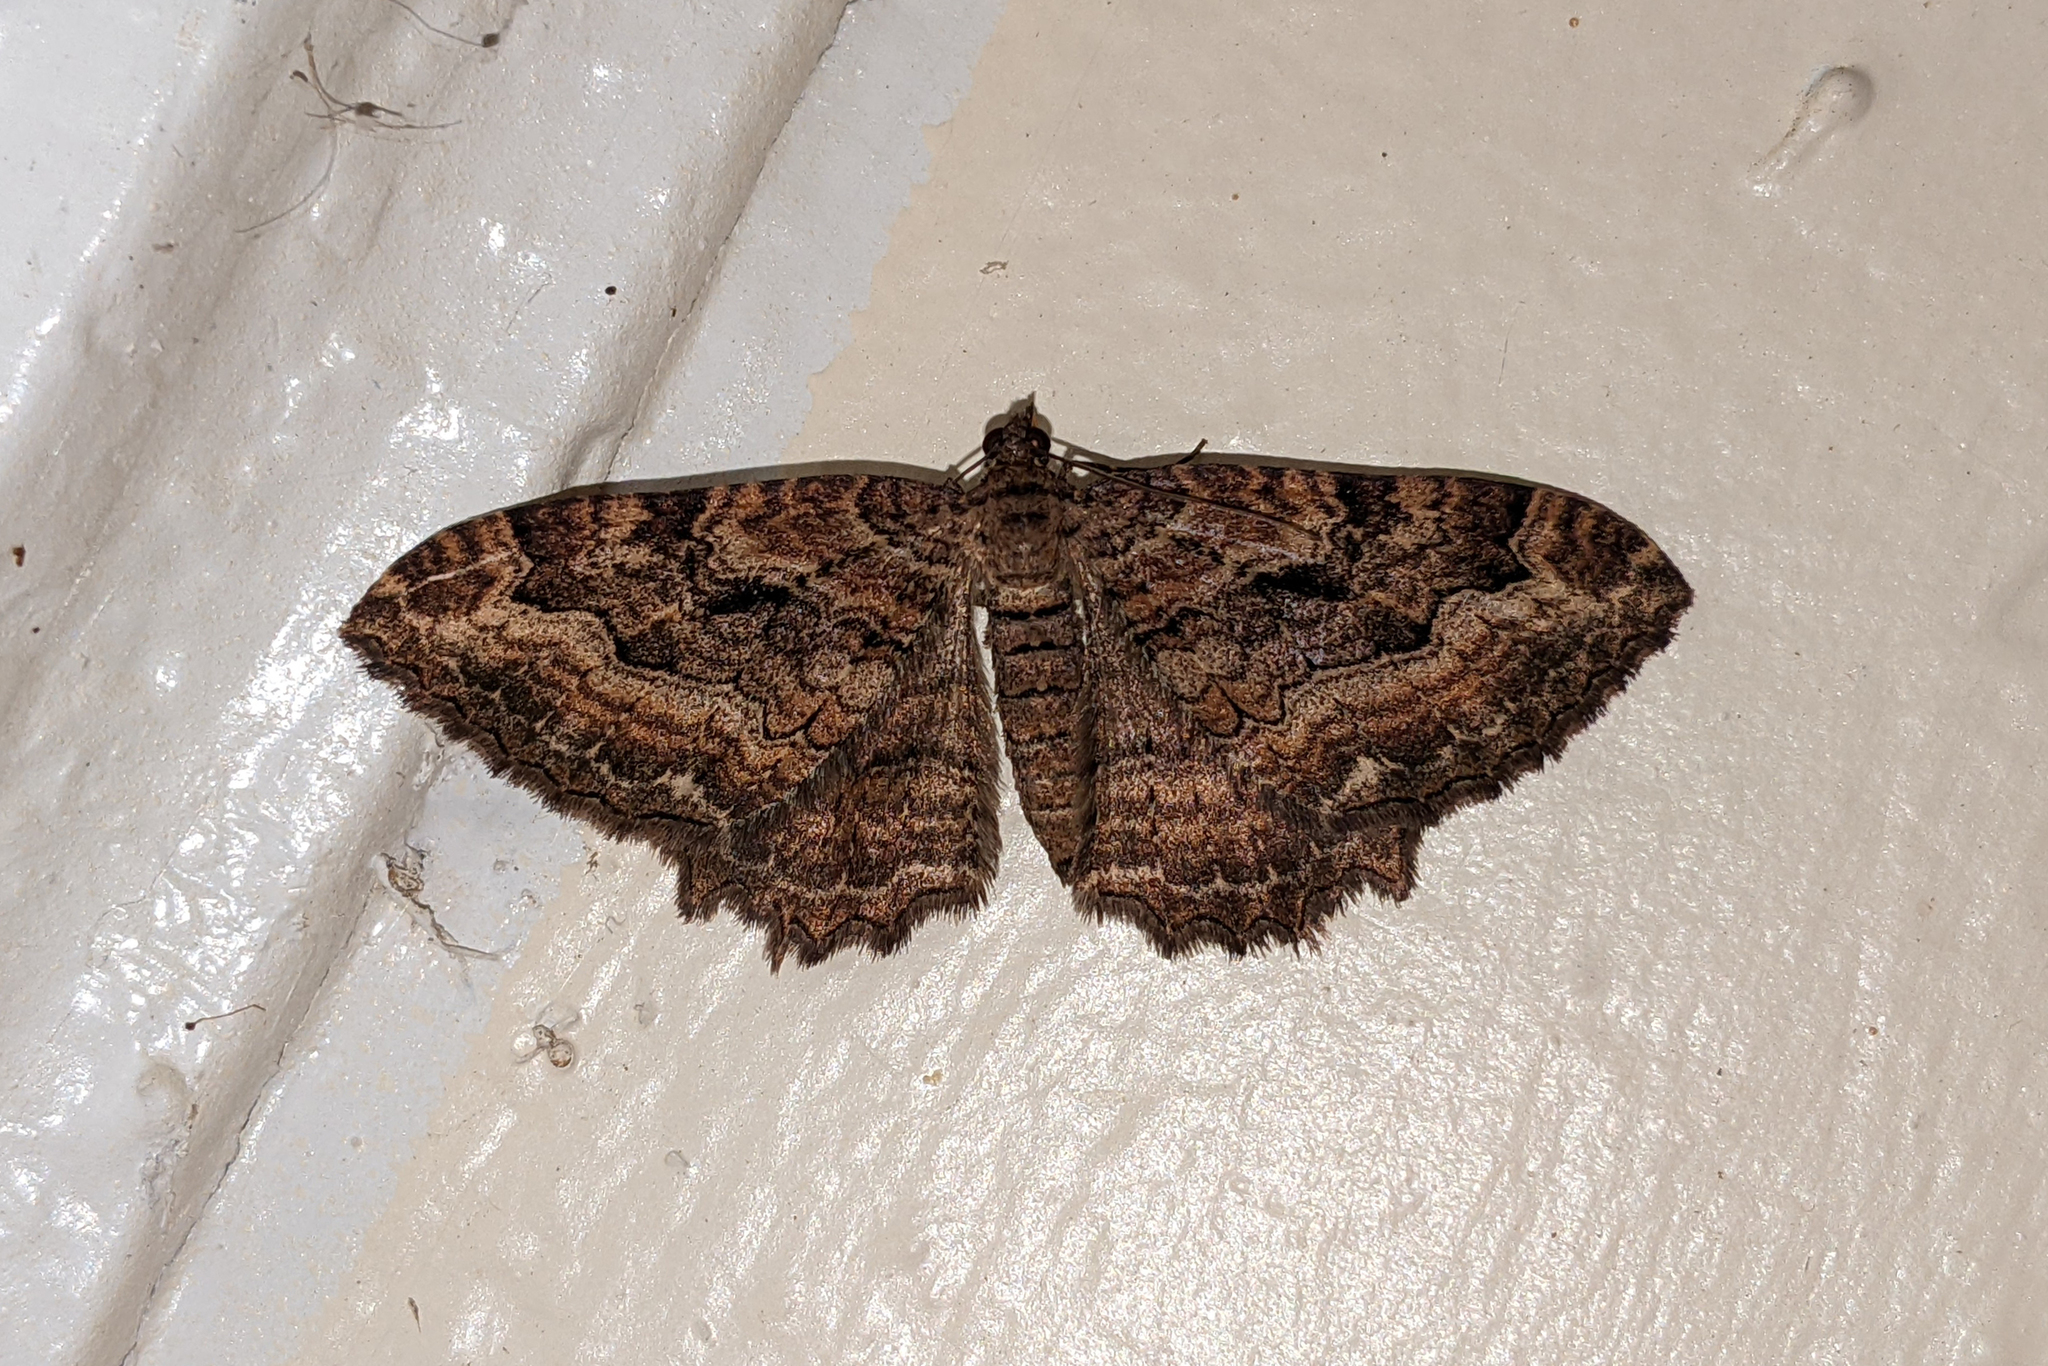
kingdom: Animalia
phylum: Arthropoda
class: Insecta
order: Lepidoptera
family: Geometridae
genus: Rheumaptera
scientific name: Rheumaptera
